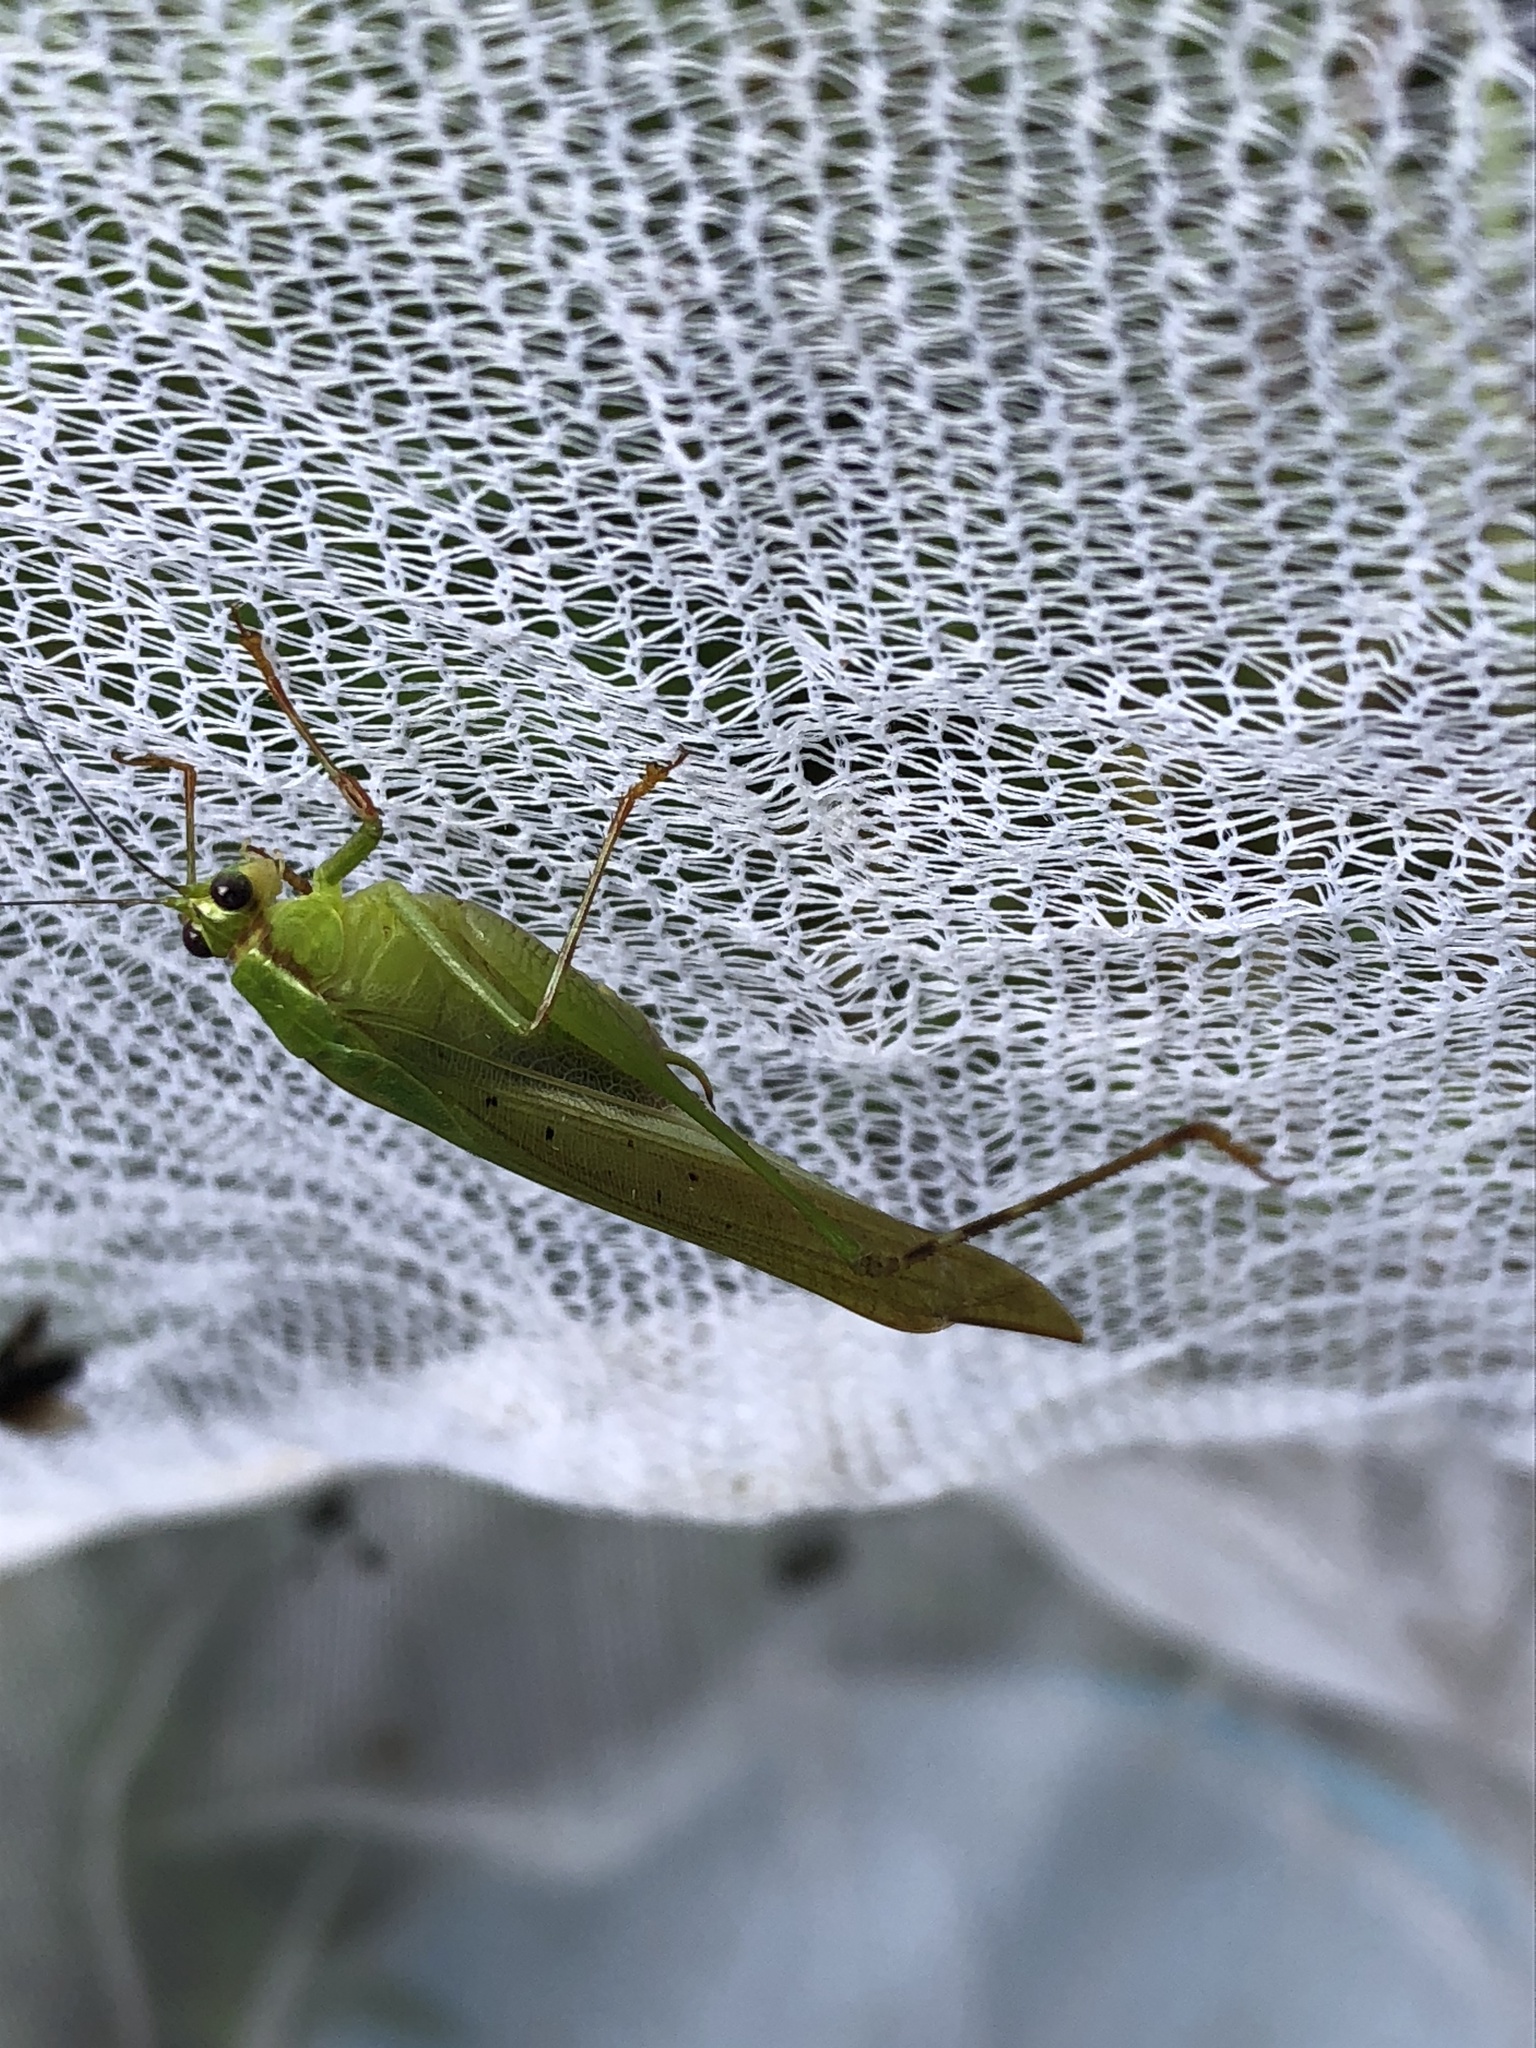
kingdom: Animalia
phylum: Arthropoda
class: Insecta
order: Orthoptera
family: Tettigoniidae
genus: Zenirella
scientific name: Zenirella punctata
